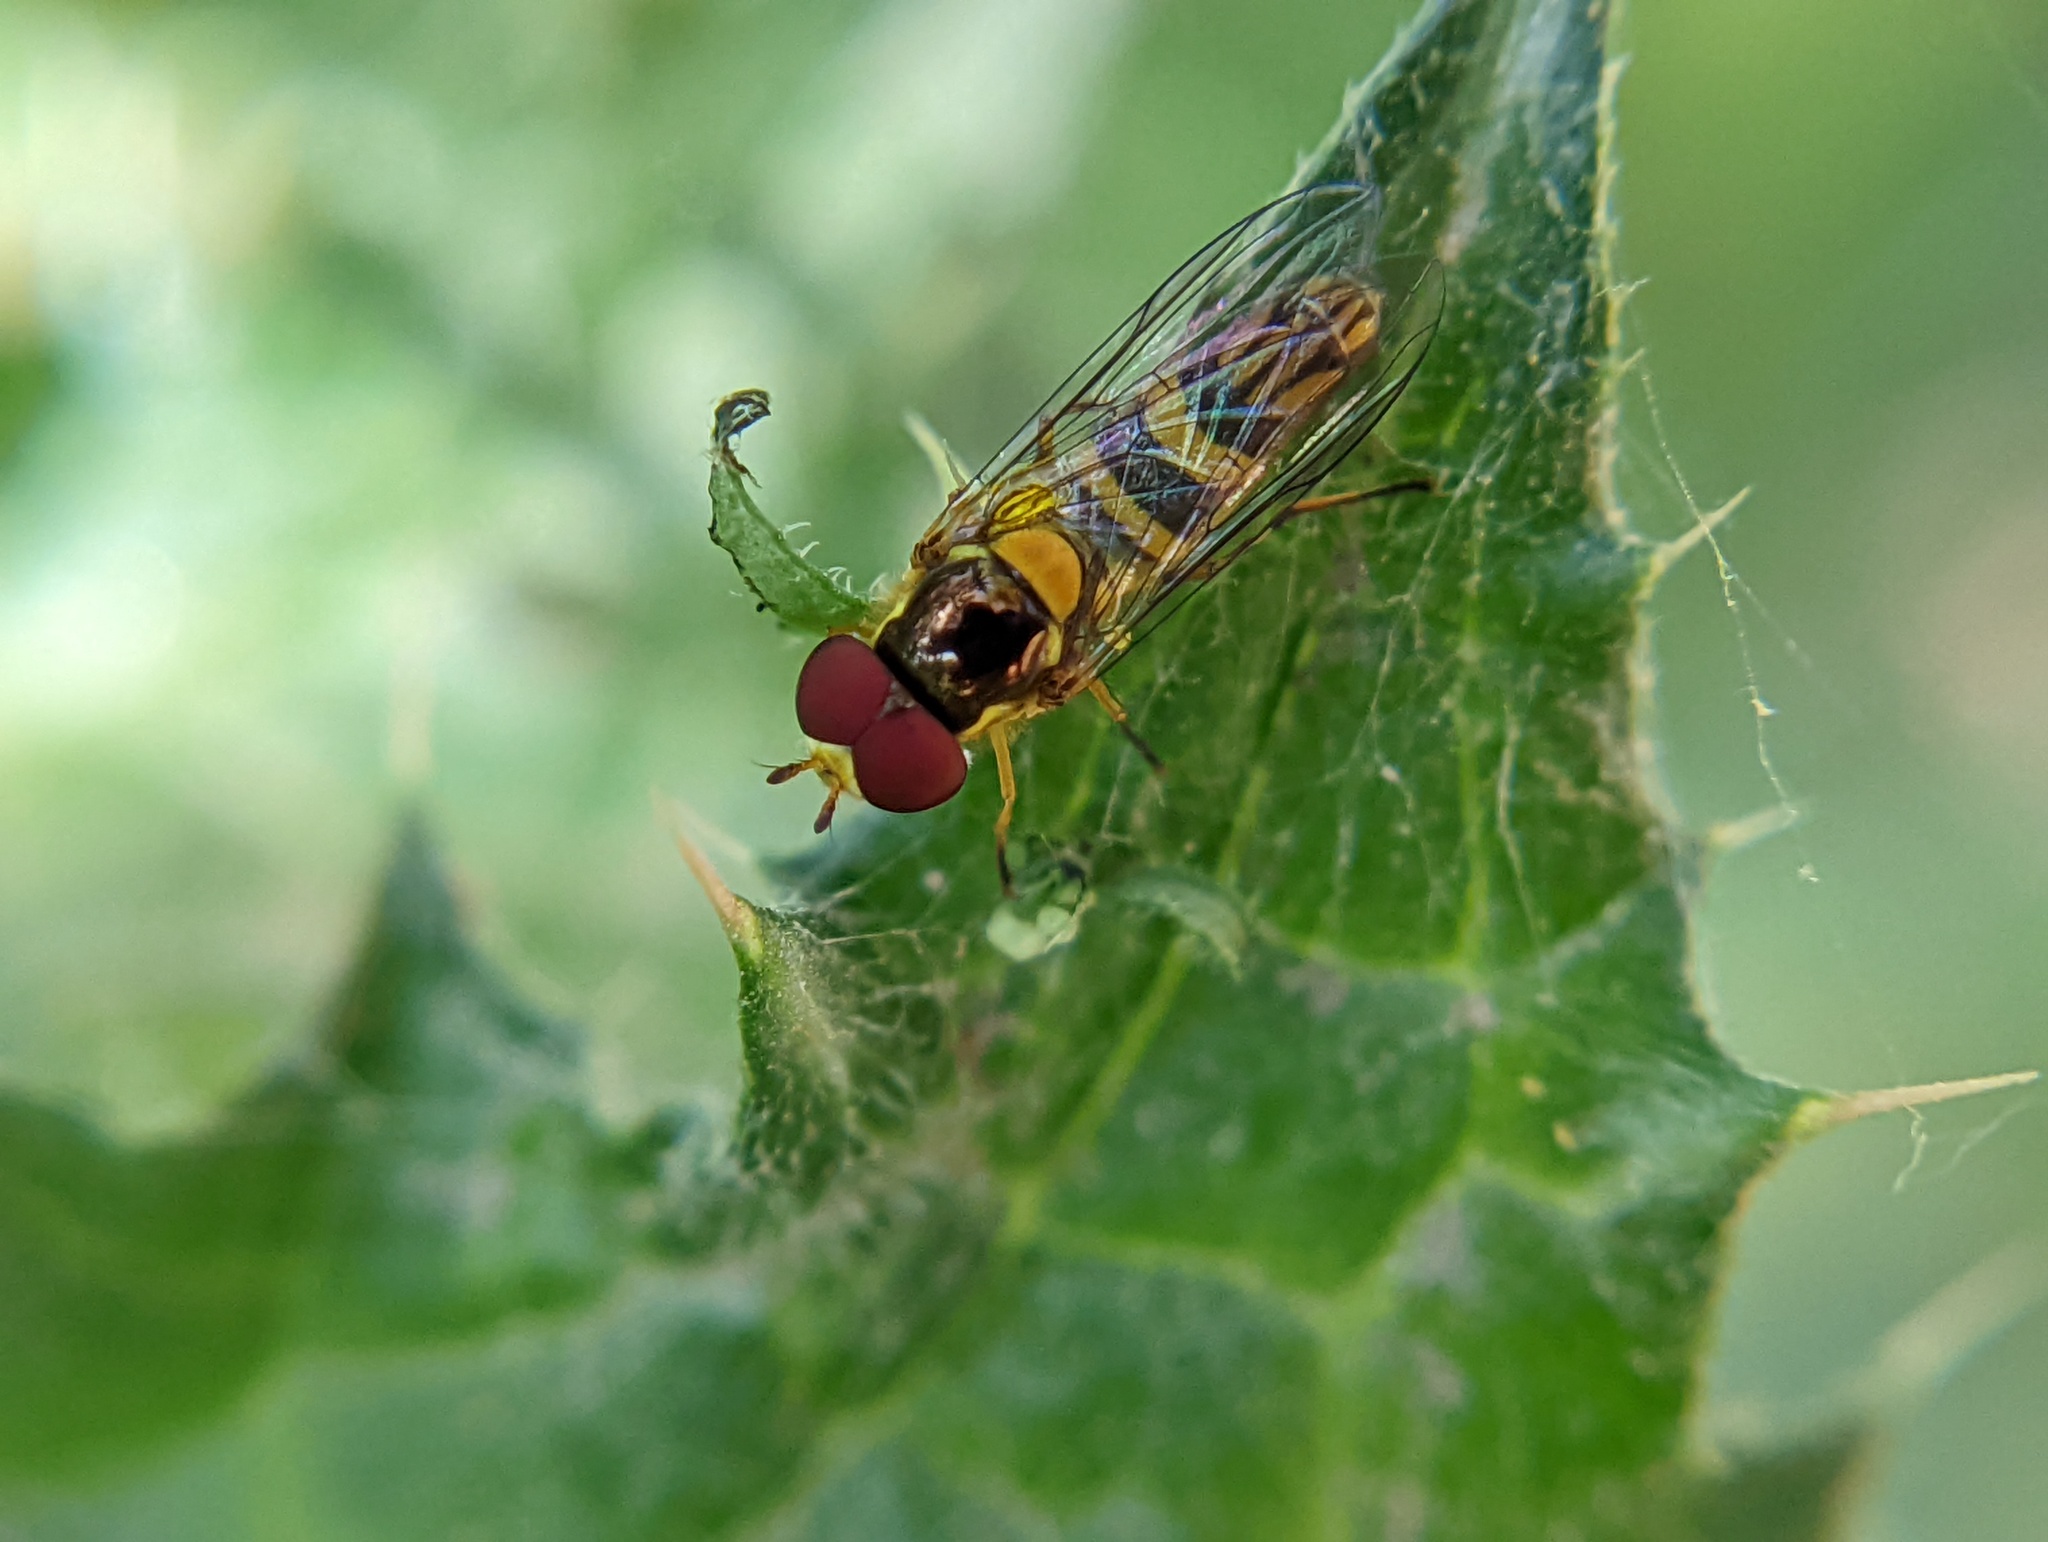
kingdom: Animalia
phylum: Arthropoda
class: Insecta
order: Diptera
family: Syrphidae
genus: Allograpta
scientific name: Allograpta obliqua
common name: Common oblique syrphid
